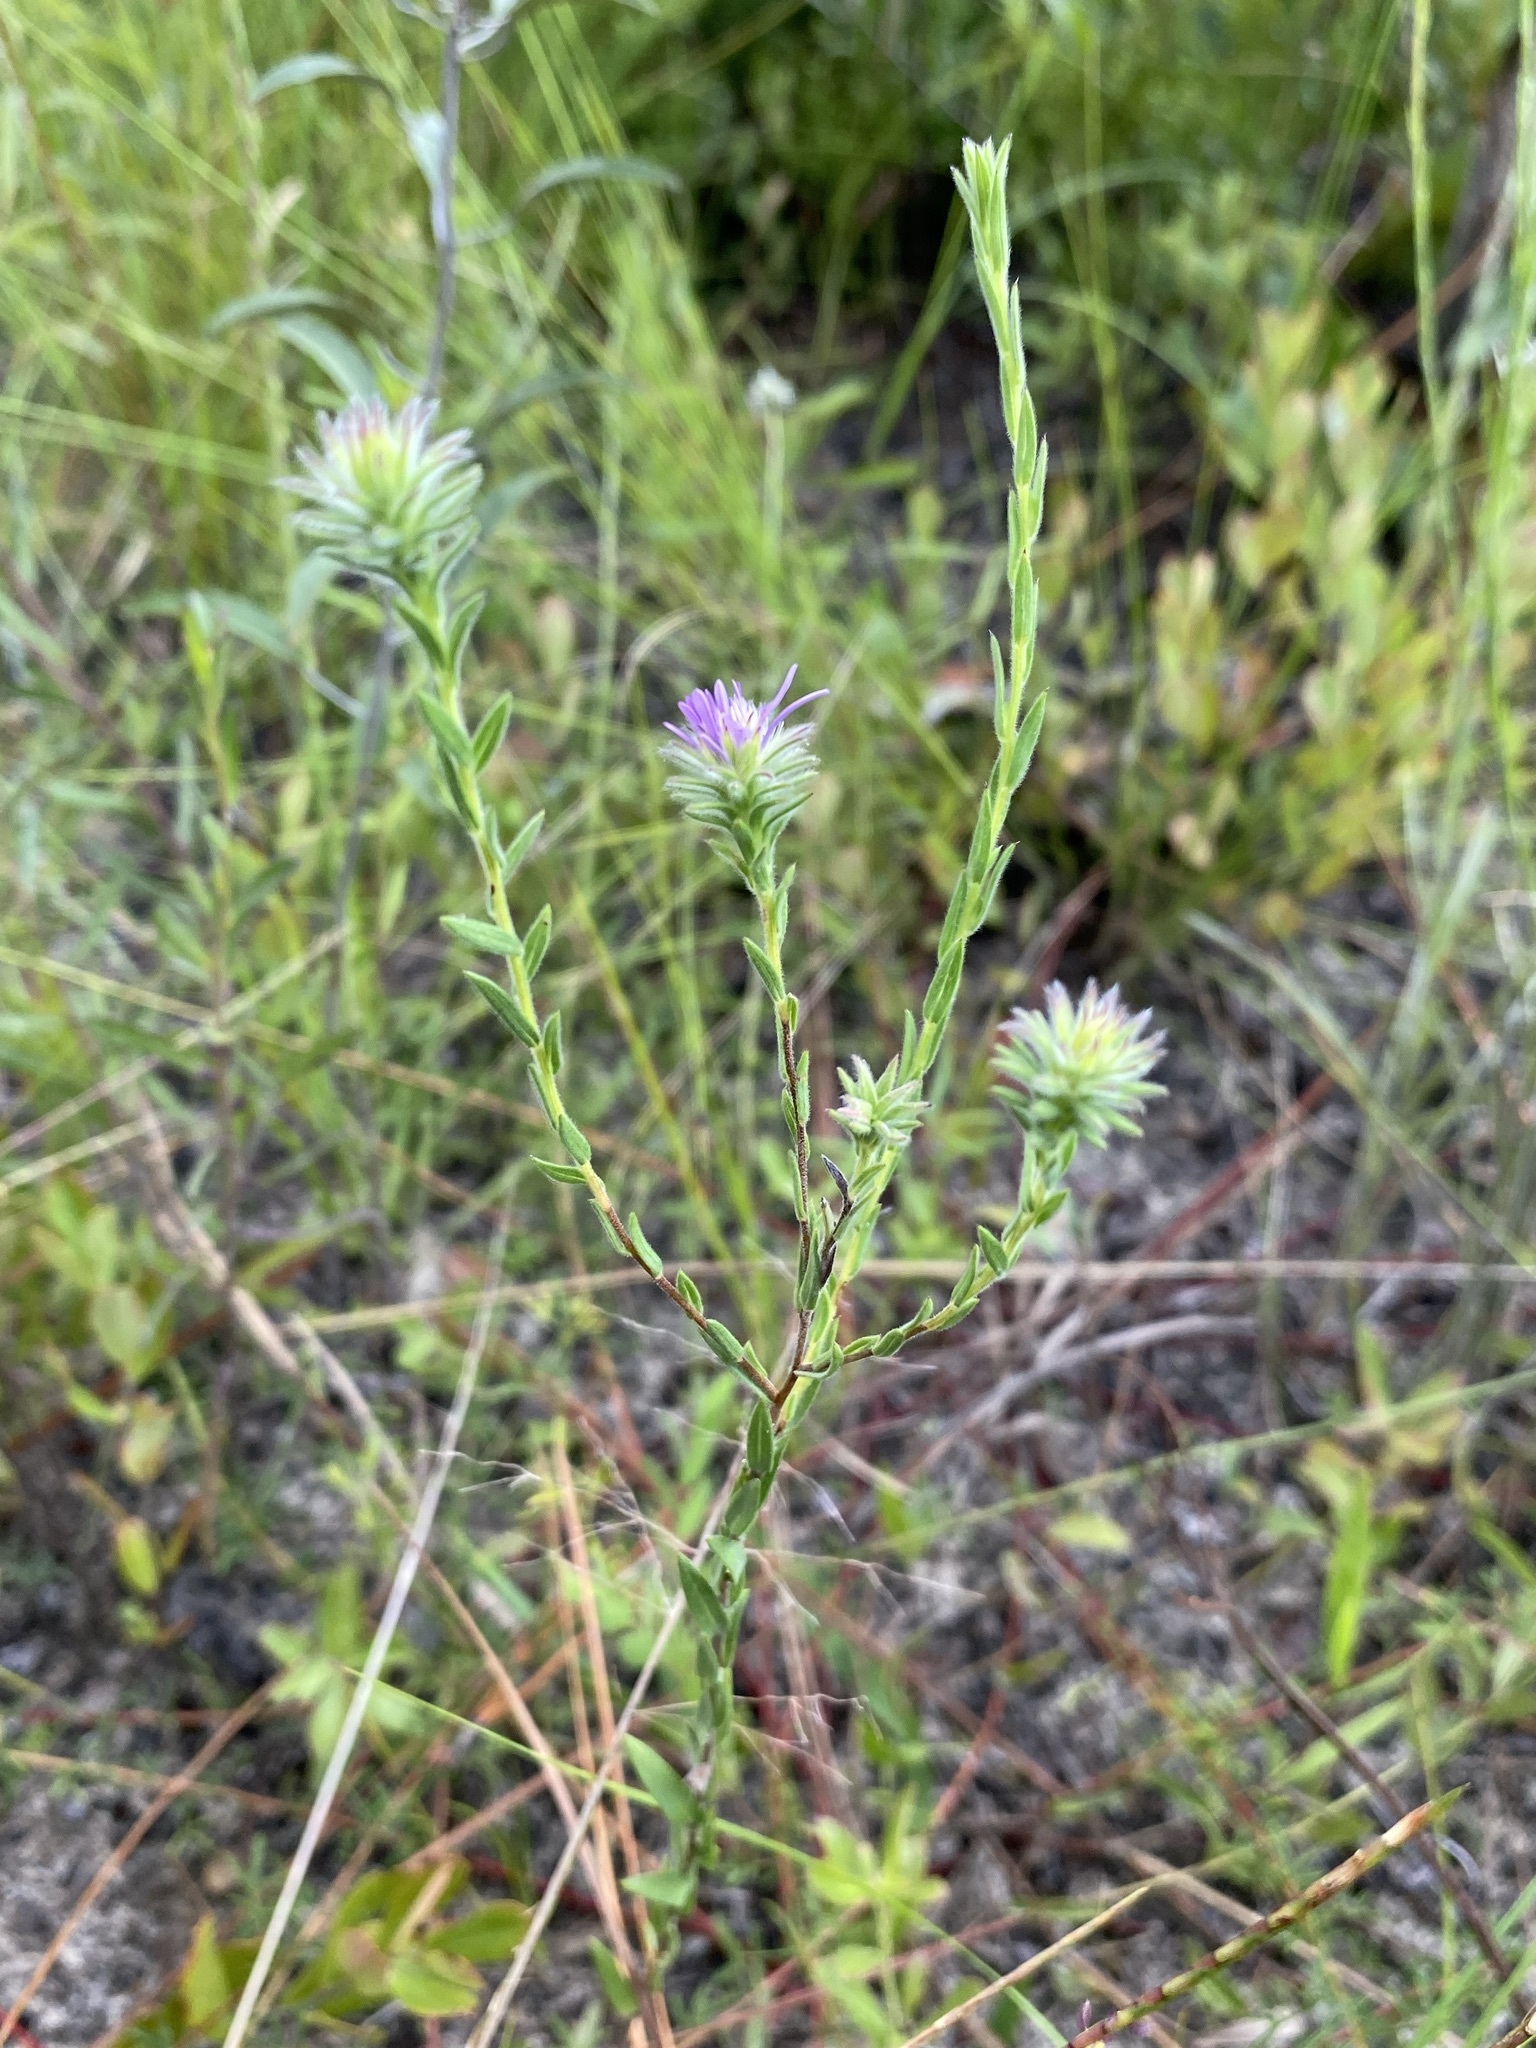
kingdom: Plantae
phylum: Tracheophyta
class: Magnoliopsida
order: Asterales
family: Asteraceae
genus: Symphyotrichum
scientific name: Symphyotrichum plumosum
